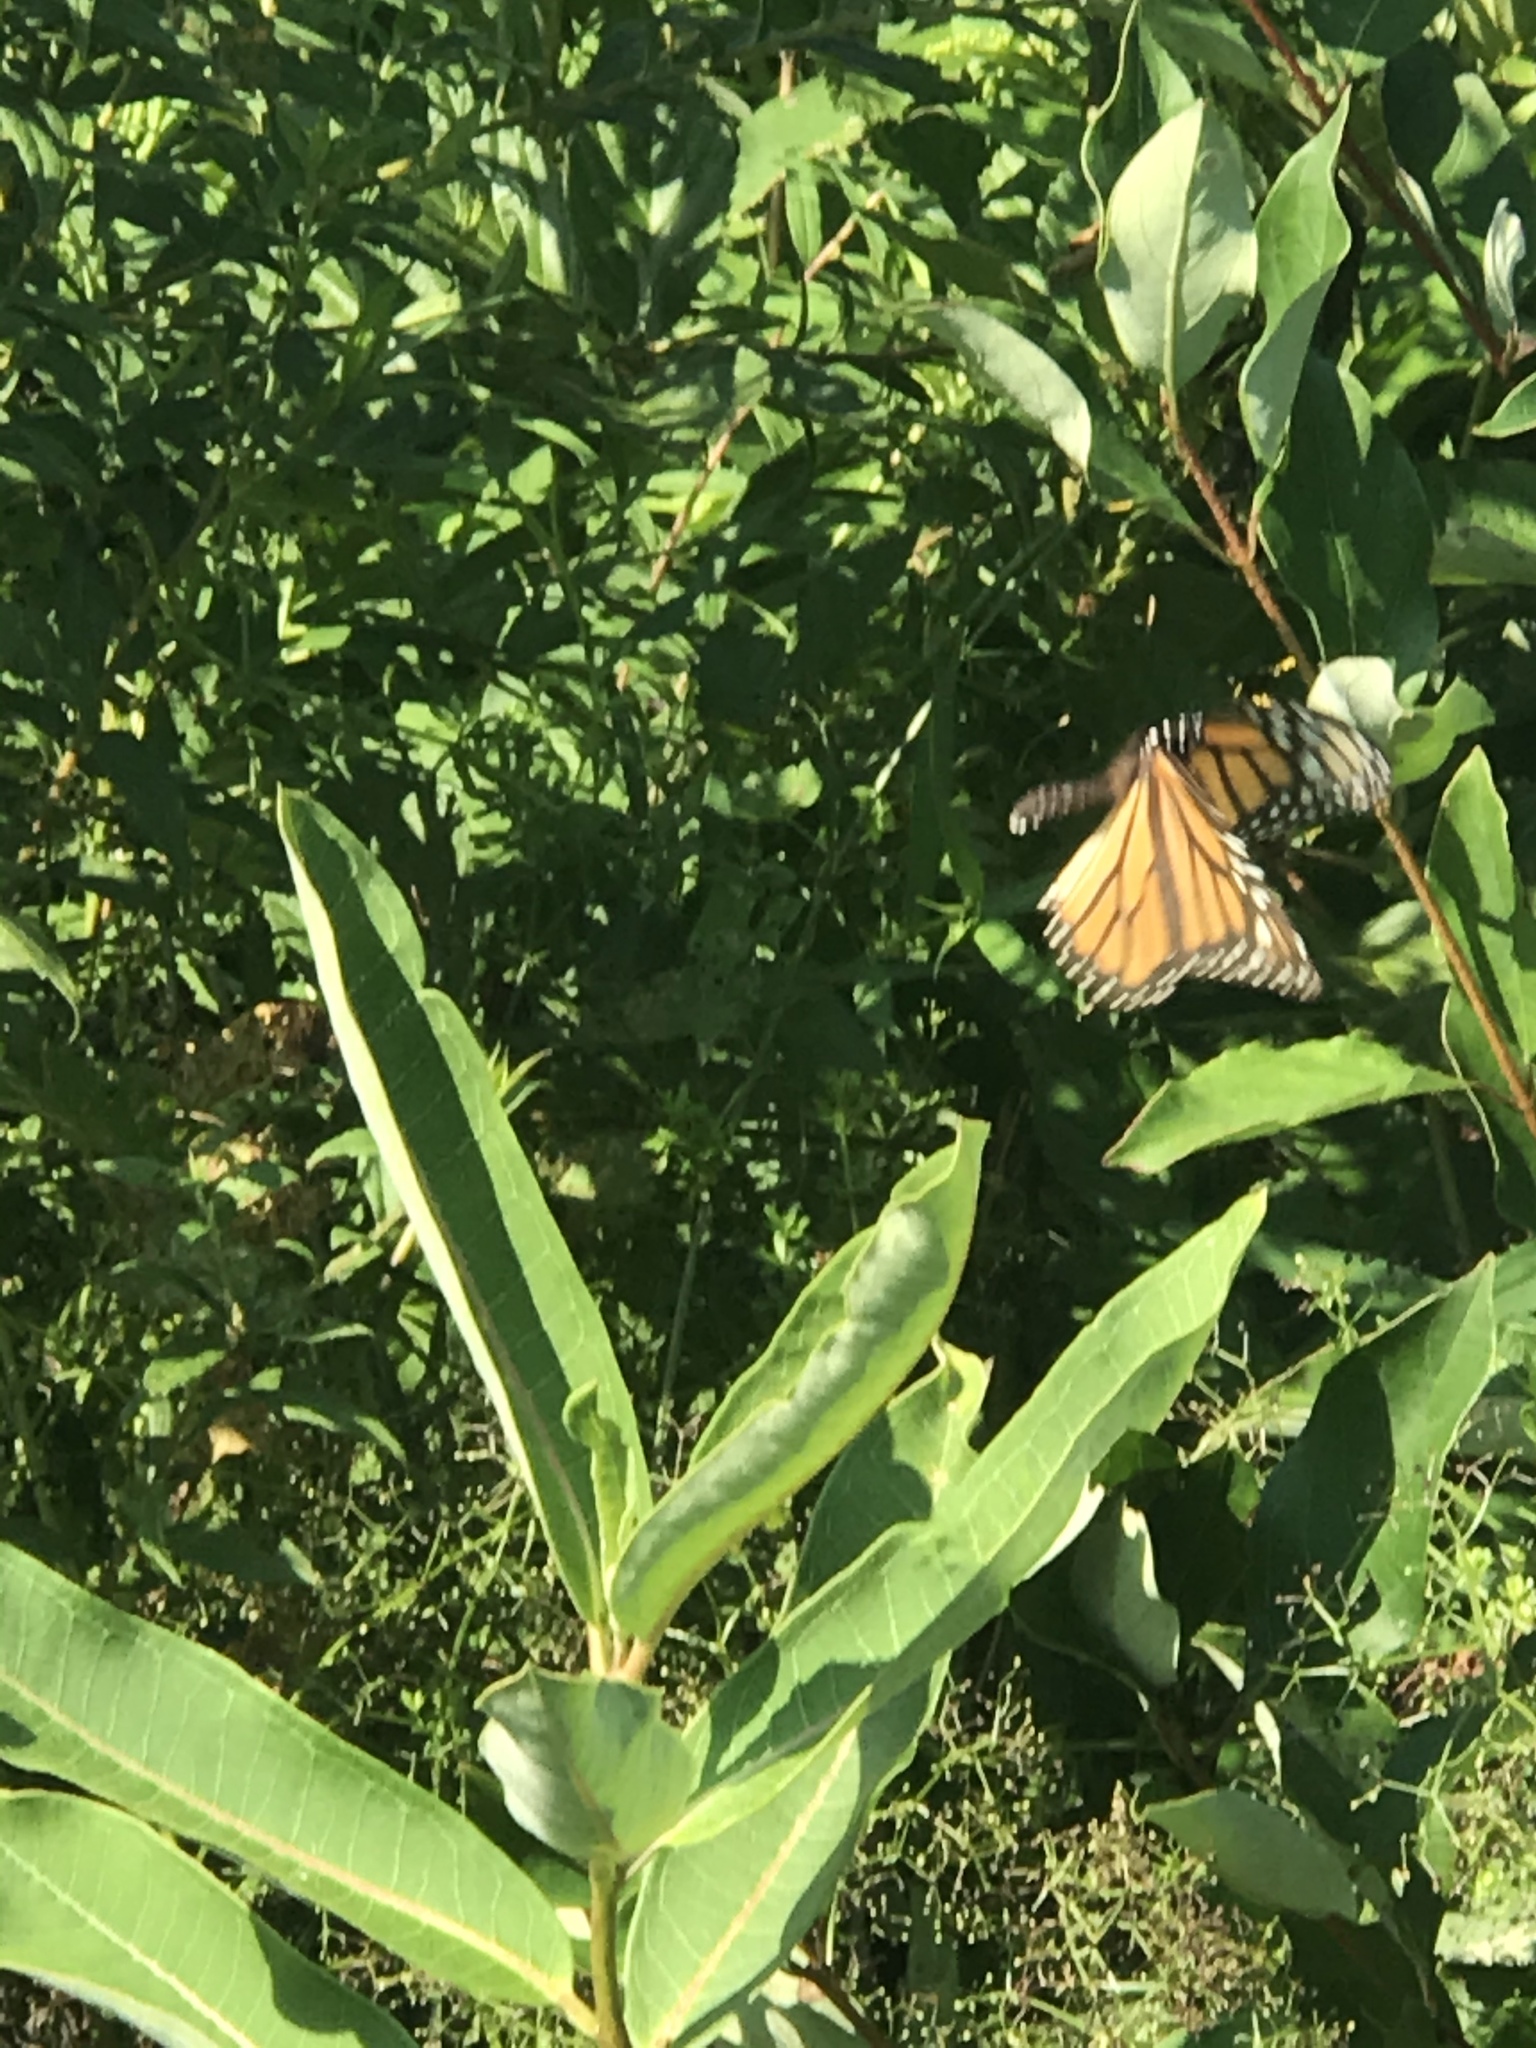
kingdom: Animalia
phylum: Arthropoda
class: Insecta
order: Lepidoptera
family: Nymphalidae
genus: Danaus
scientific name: Danaus plexippus
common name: Monarch
